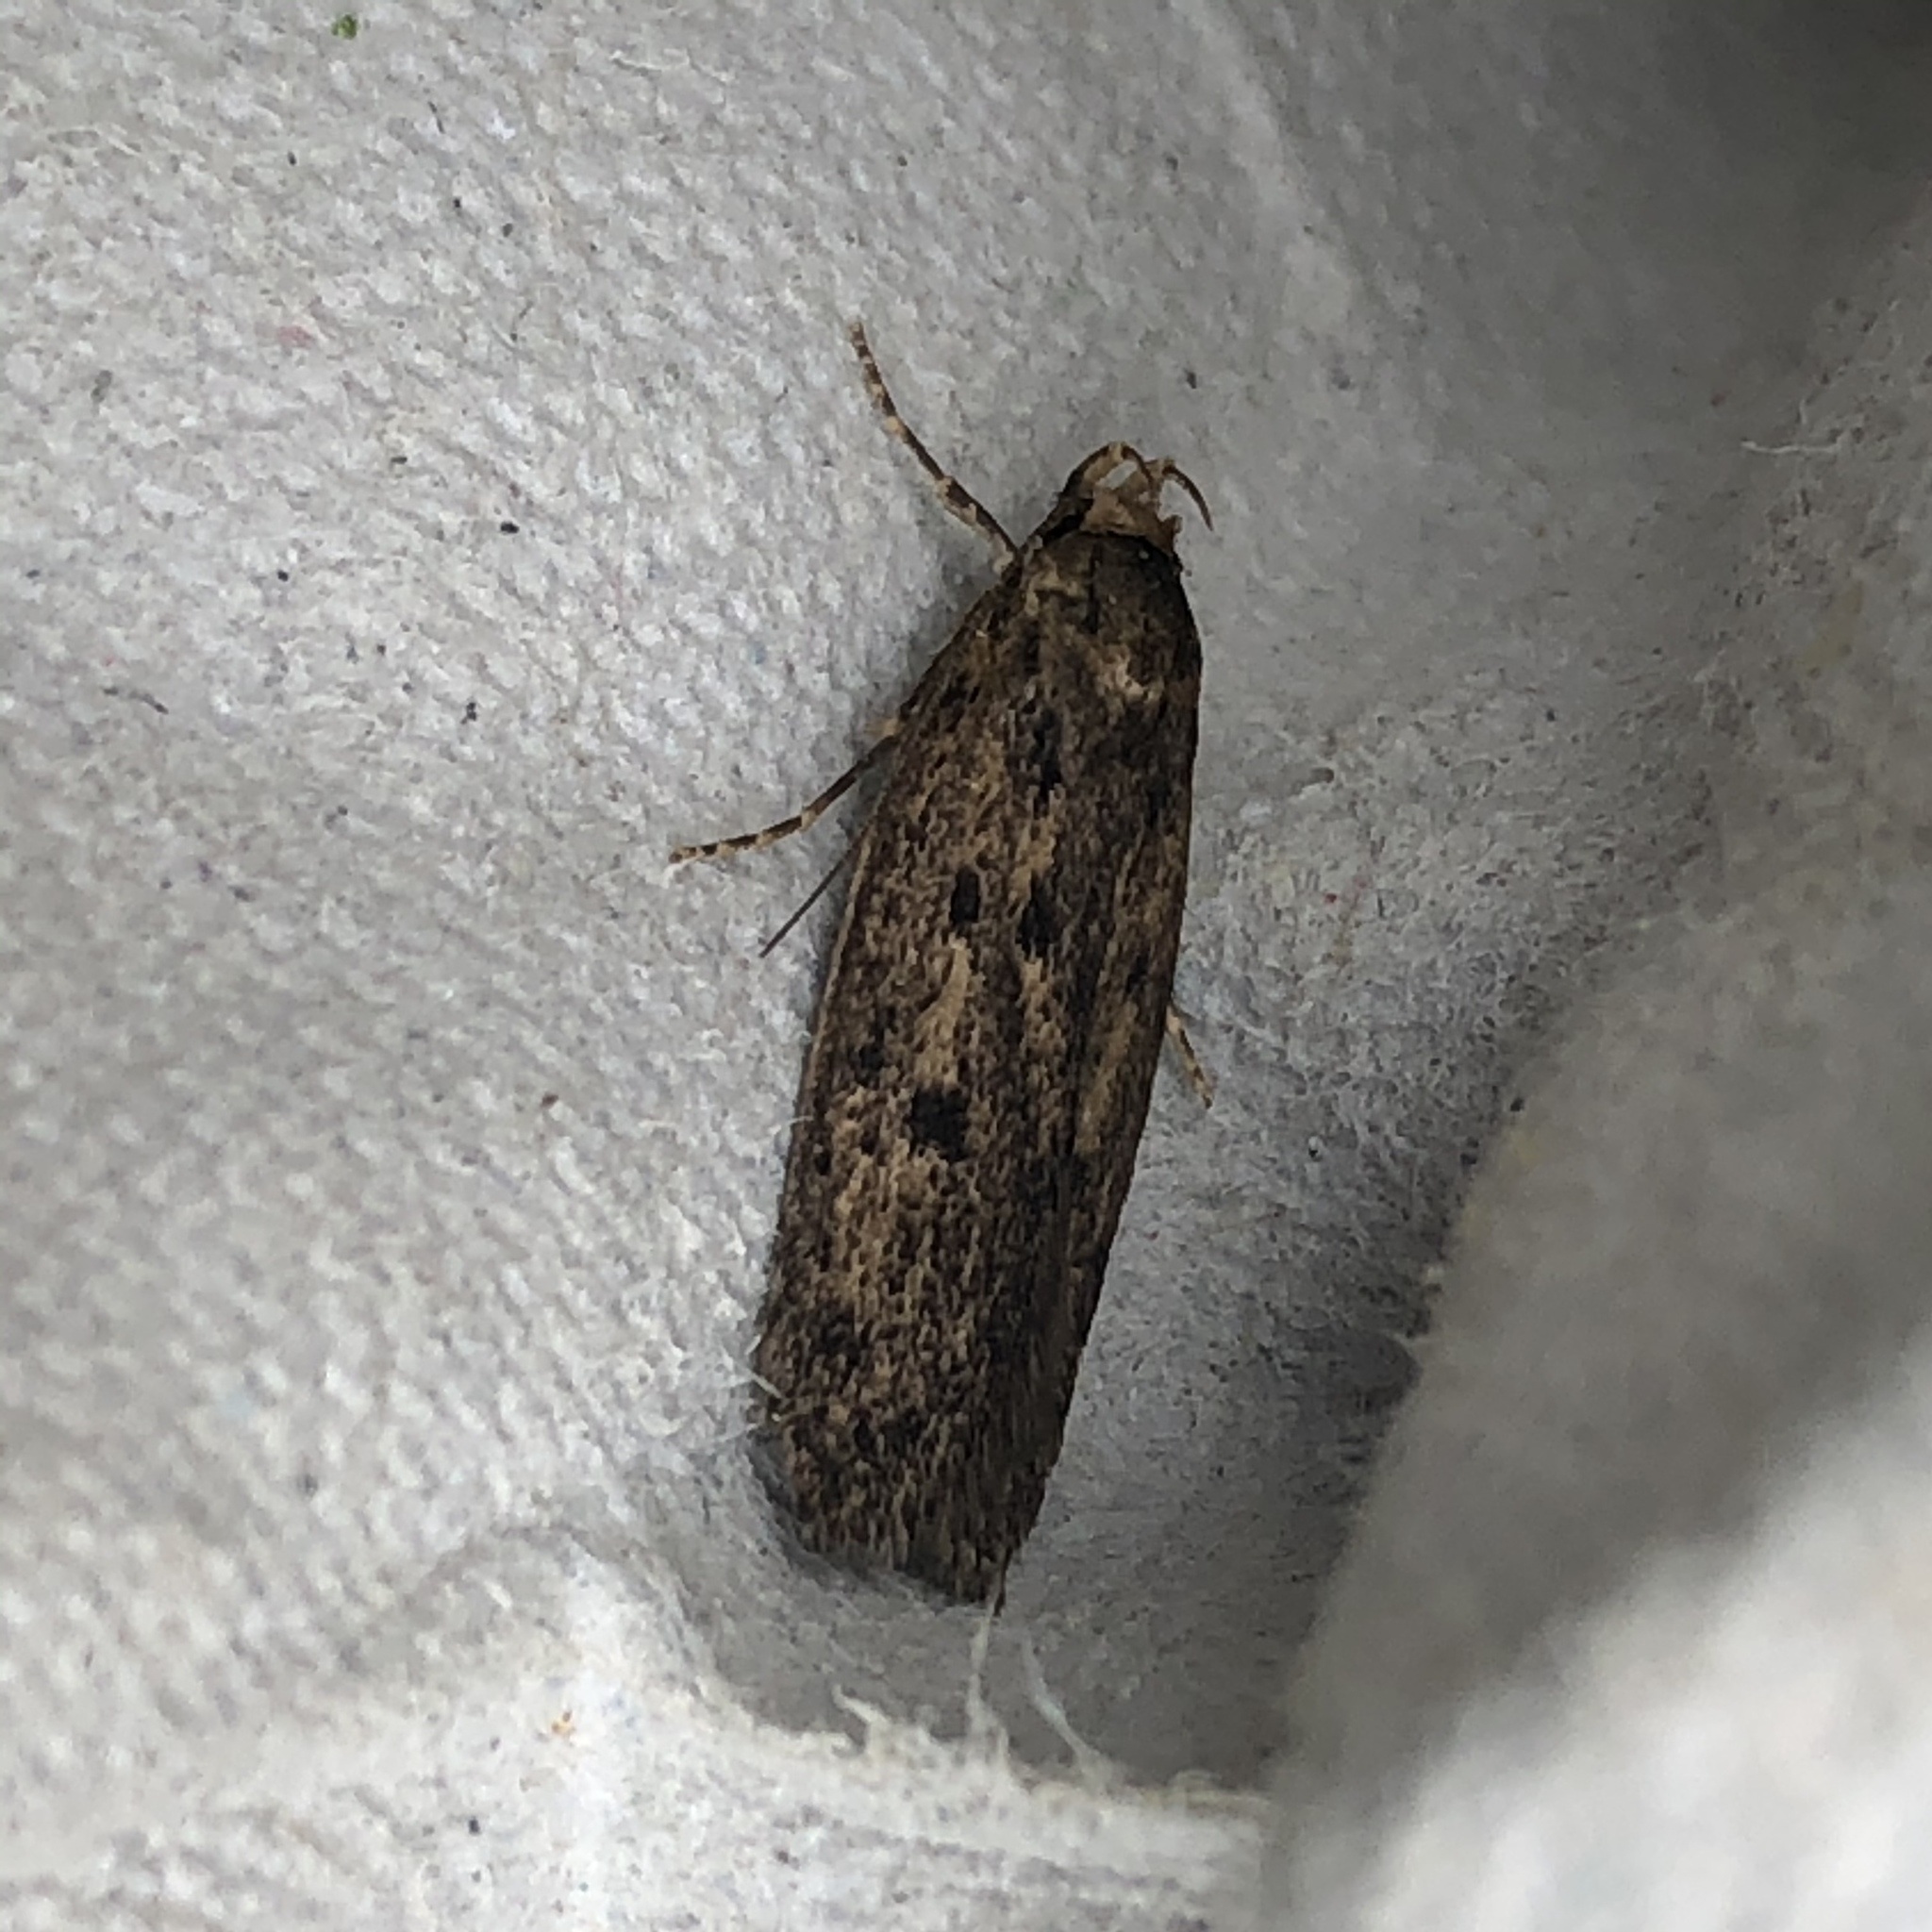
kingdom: Animalia
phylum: Arthropoda
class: Insecta
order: Lepidoptera
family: Oecophoridae
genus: Hofmannophila
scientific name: Hofmannophila pseudospretella
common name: Brown house moth
